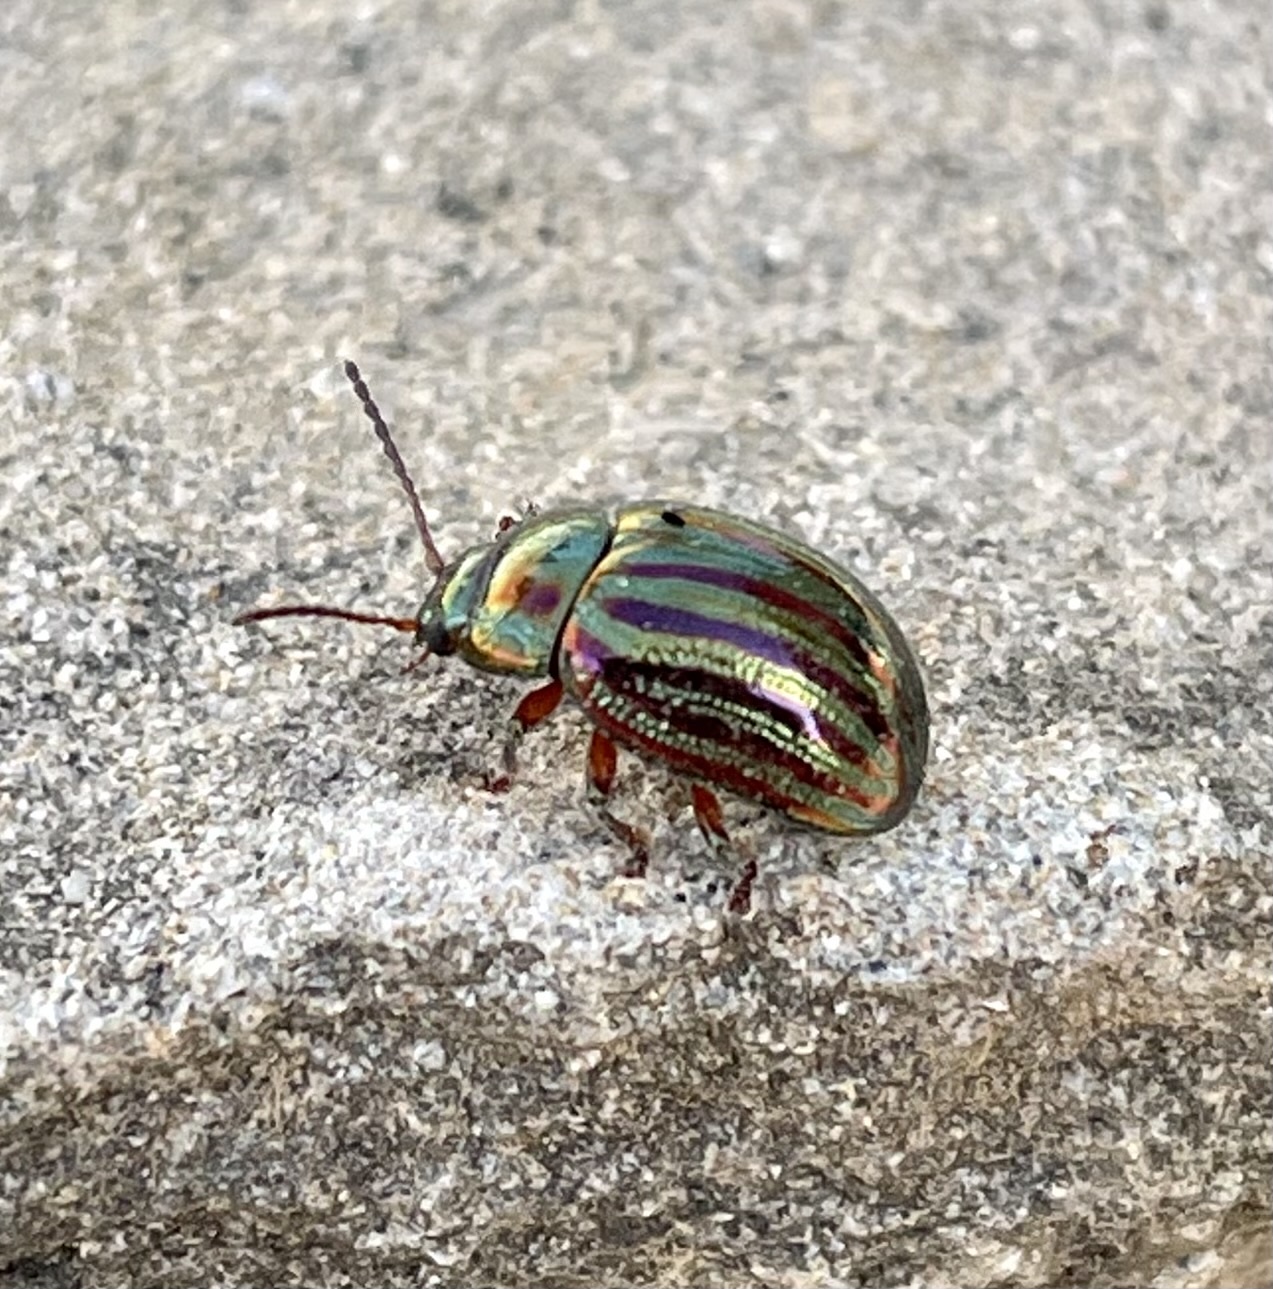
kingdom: Animalia
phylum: Arthropoda
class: Insecta
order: Coleoptera
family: Chrysomelidae
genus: Chrysolina
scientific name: Chrysolina americana
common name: Rosemary beetle
